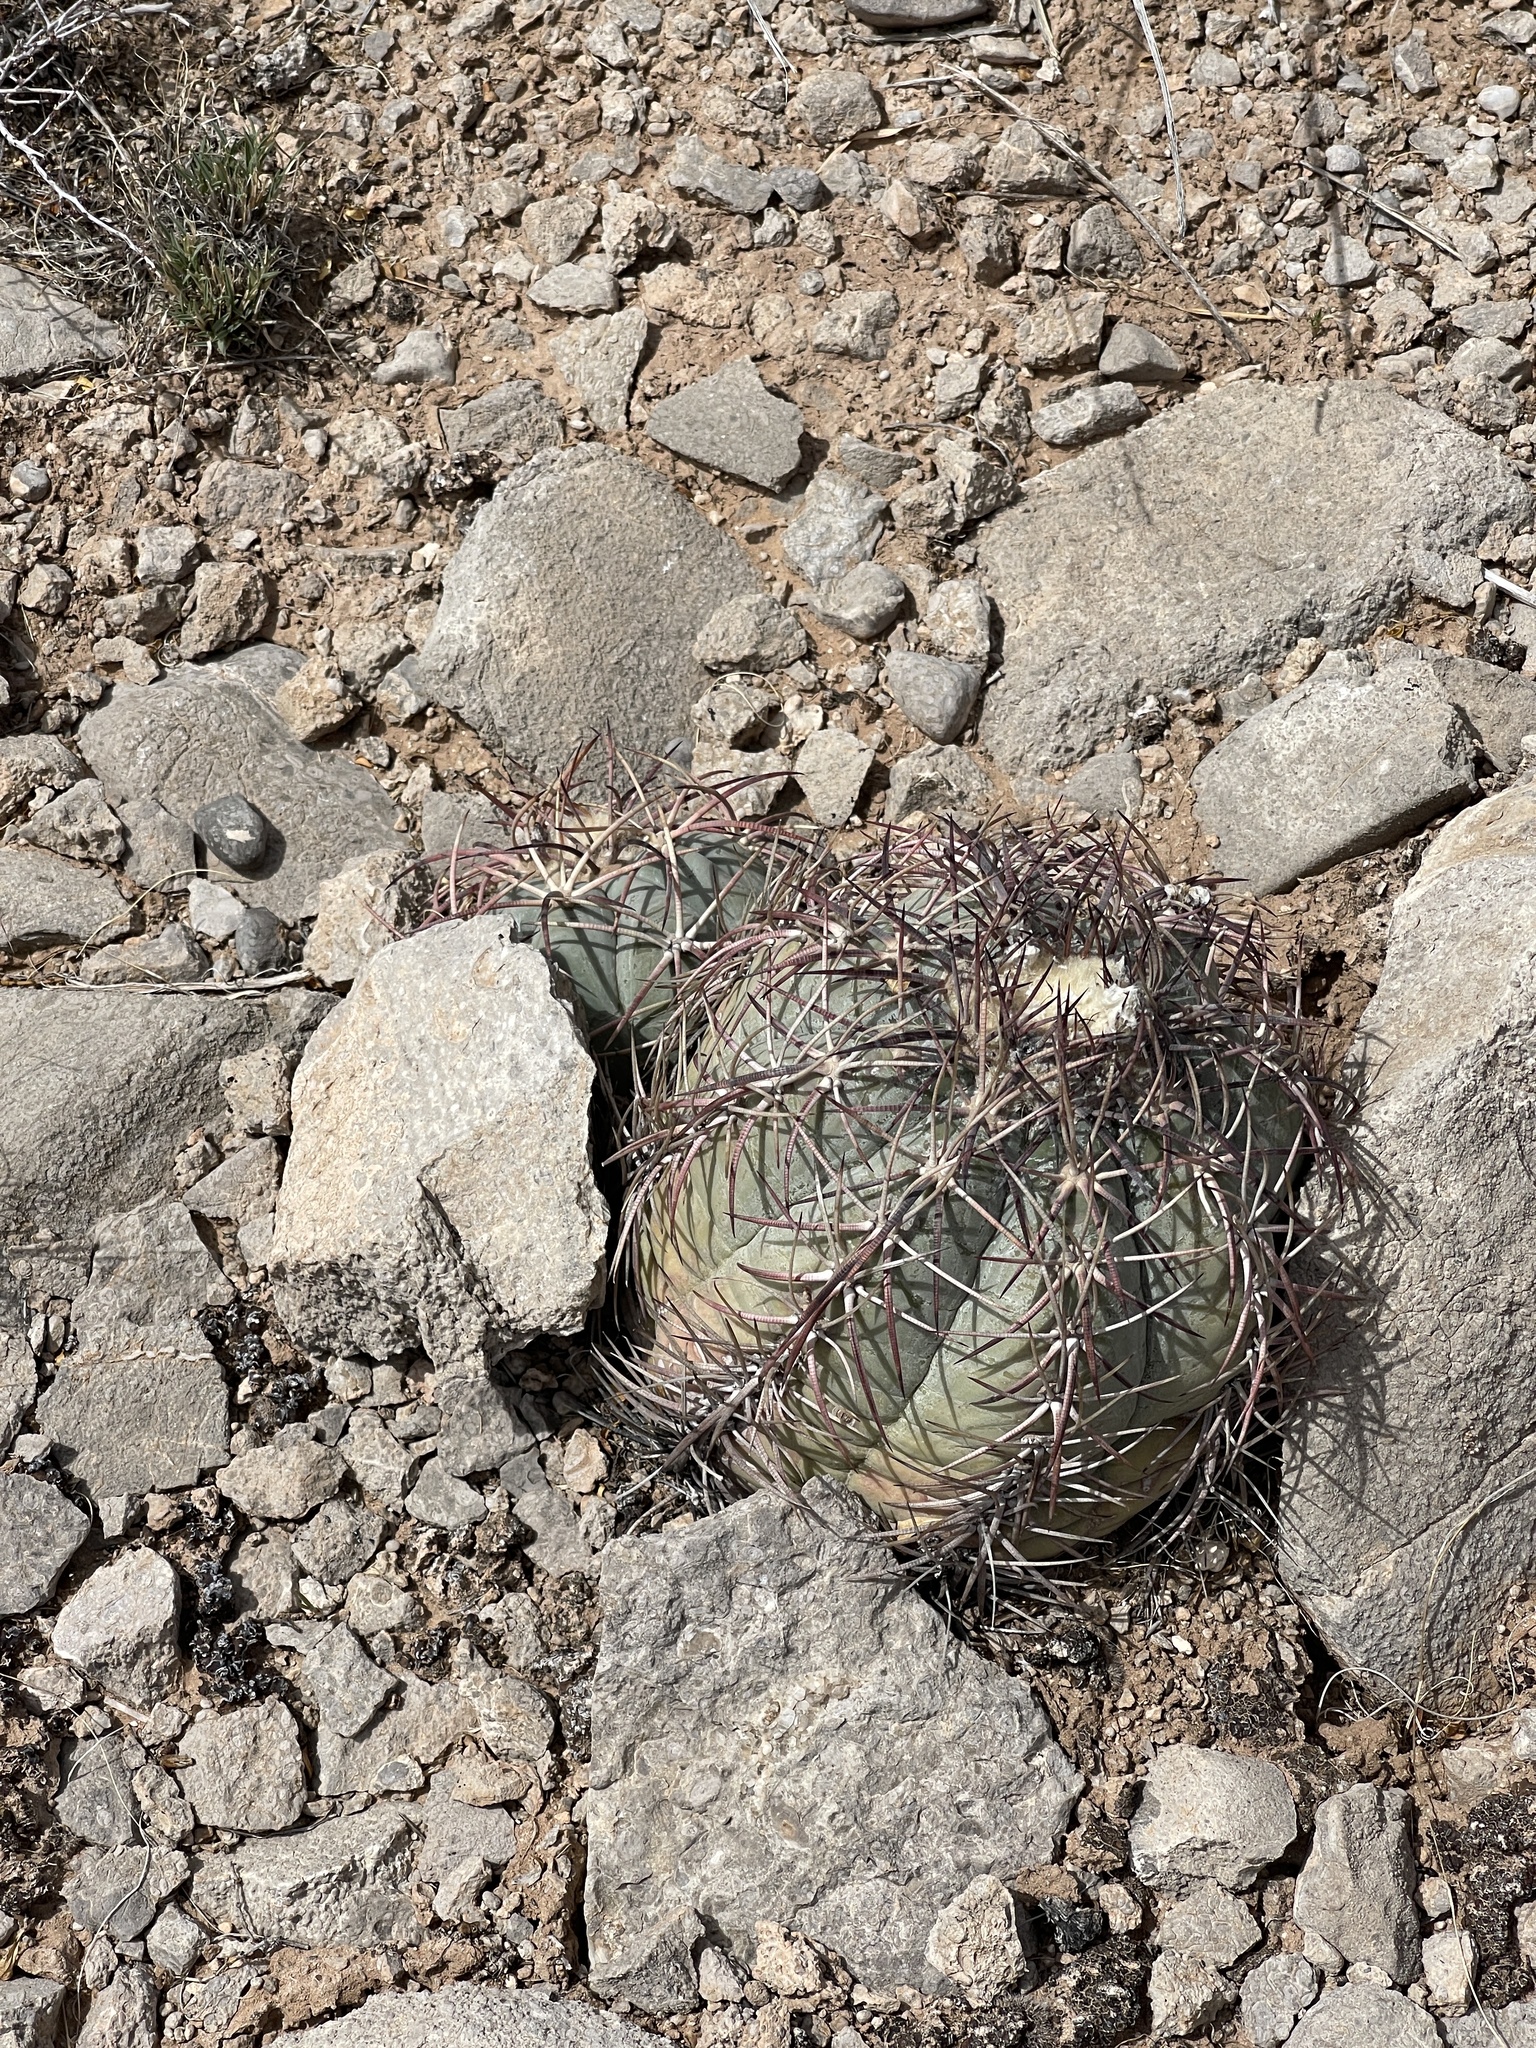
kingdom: Plantae
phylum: Tracheophyta
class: Magnoliopsida
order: Caryophyllales
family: Cactaceae
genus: Echinocactus
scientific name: Echinocactus horizonthalonius
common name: Devilshead
